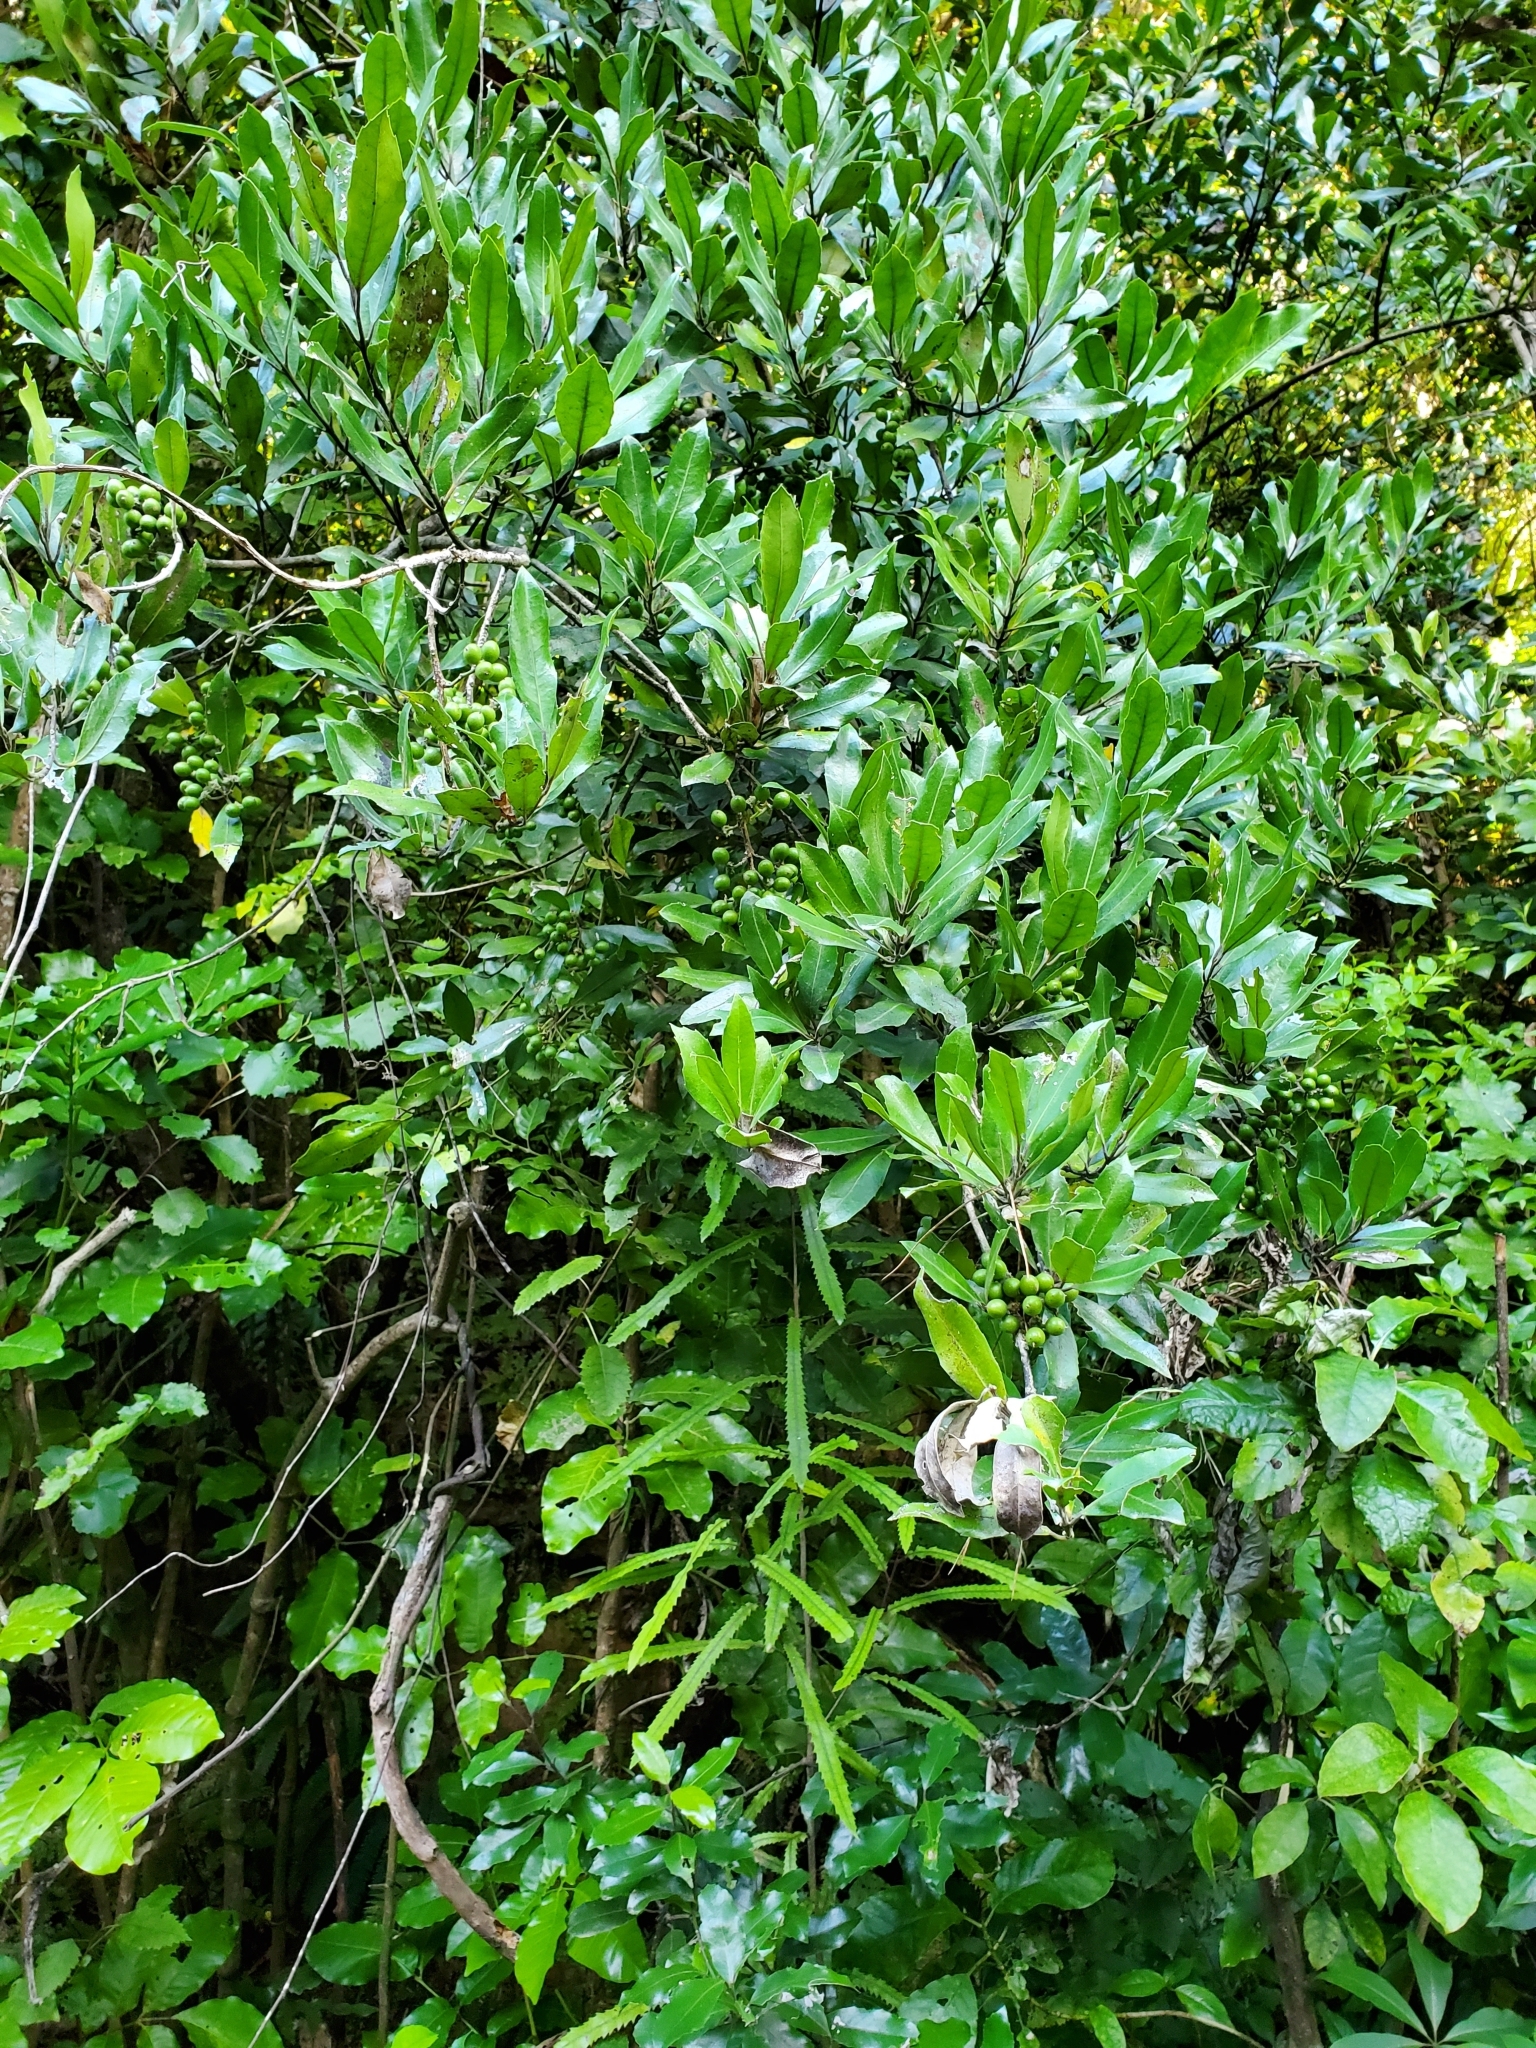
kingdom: Plantae
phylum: Tracheophyta
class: Magnoliopsida
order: Laurales
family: Monimiaceae
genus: Hedycarya
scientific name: Hedycarya arborea
